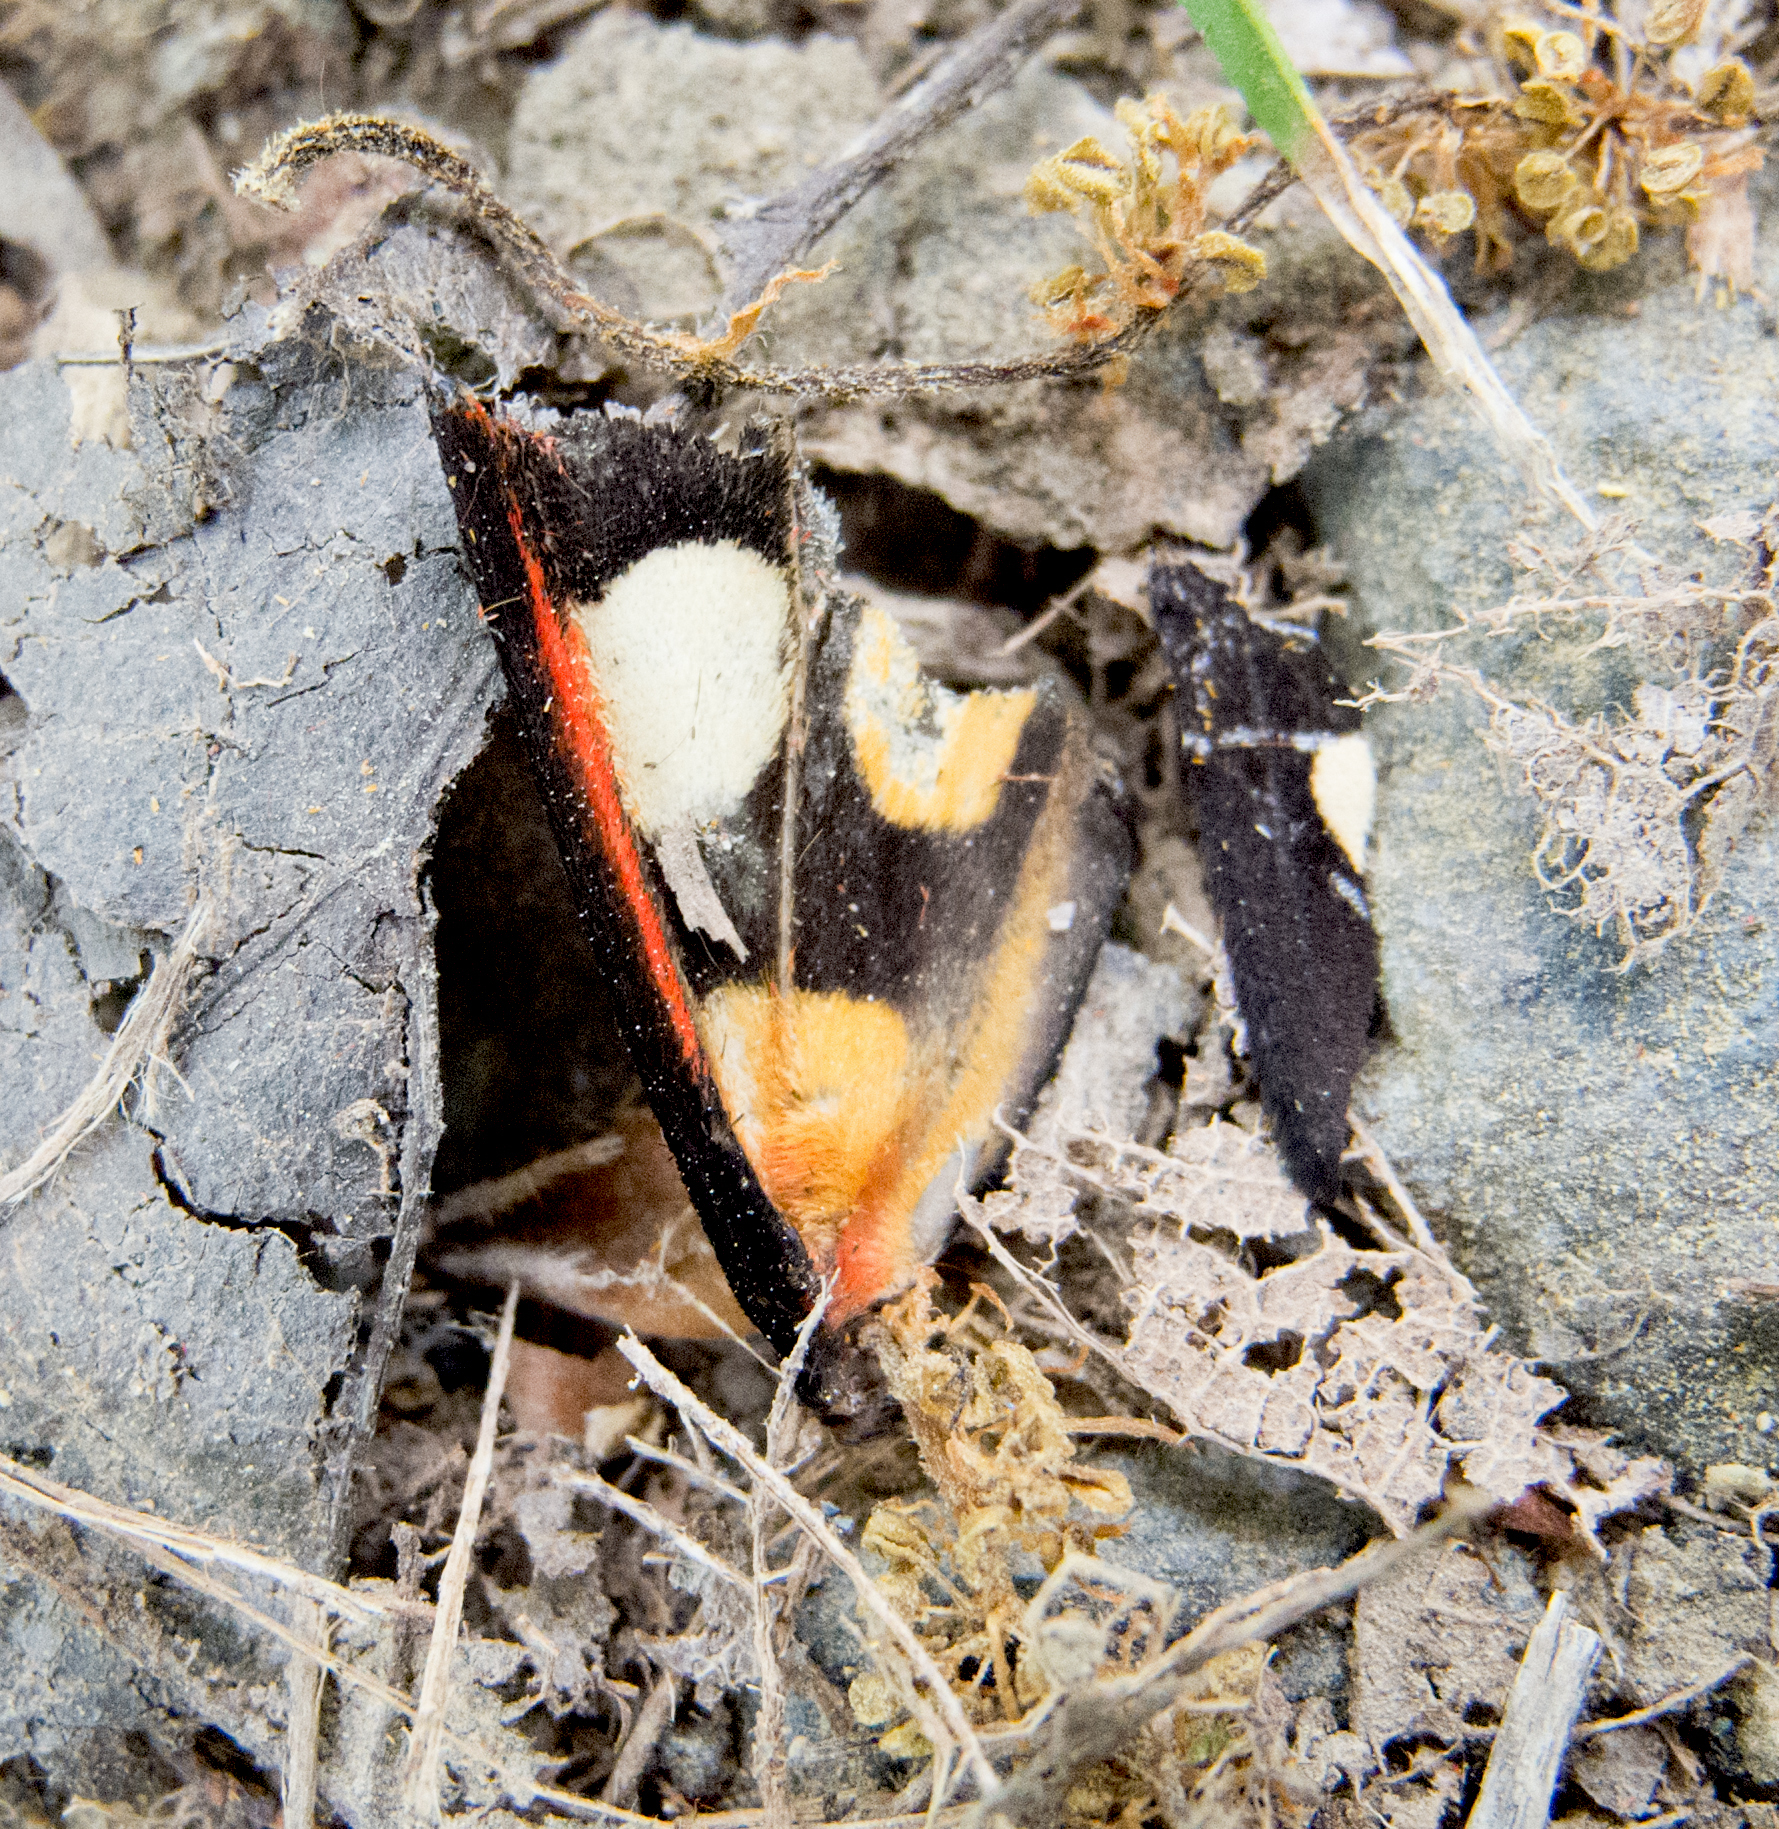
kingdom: Animalia
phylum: Arthropoda
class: Insecta
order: Lepidoptera
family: Erebidae
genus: Epicallia
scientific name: Epicallia villica
